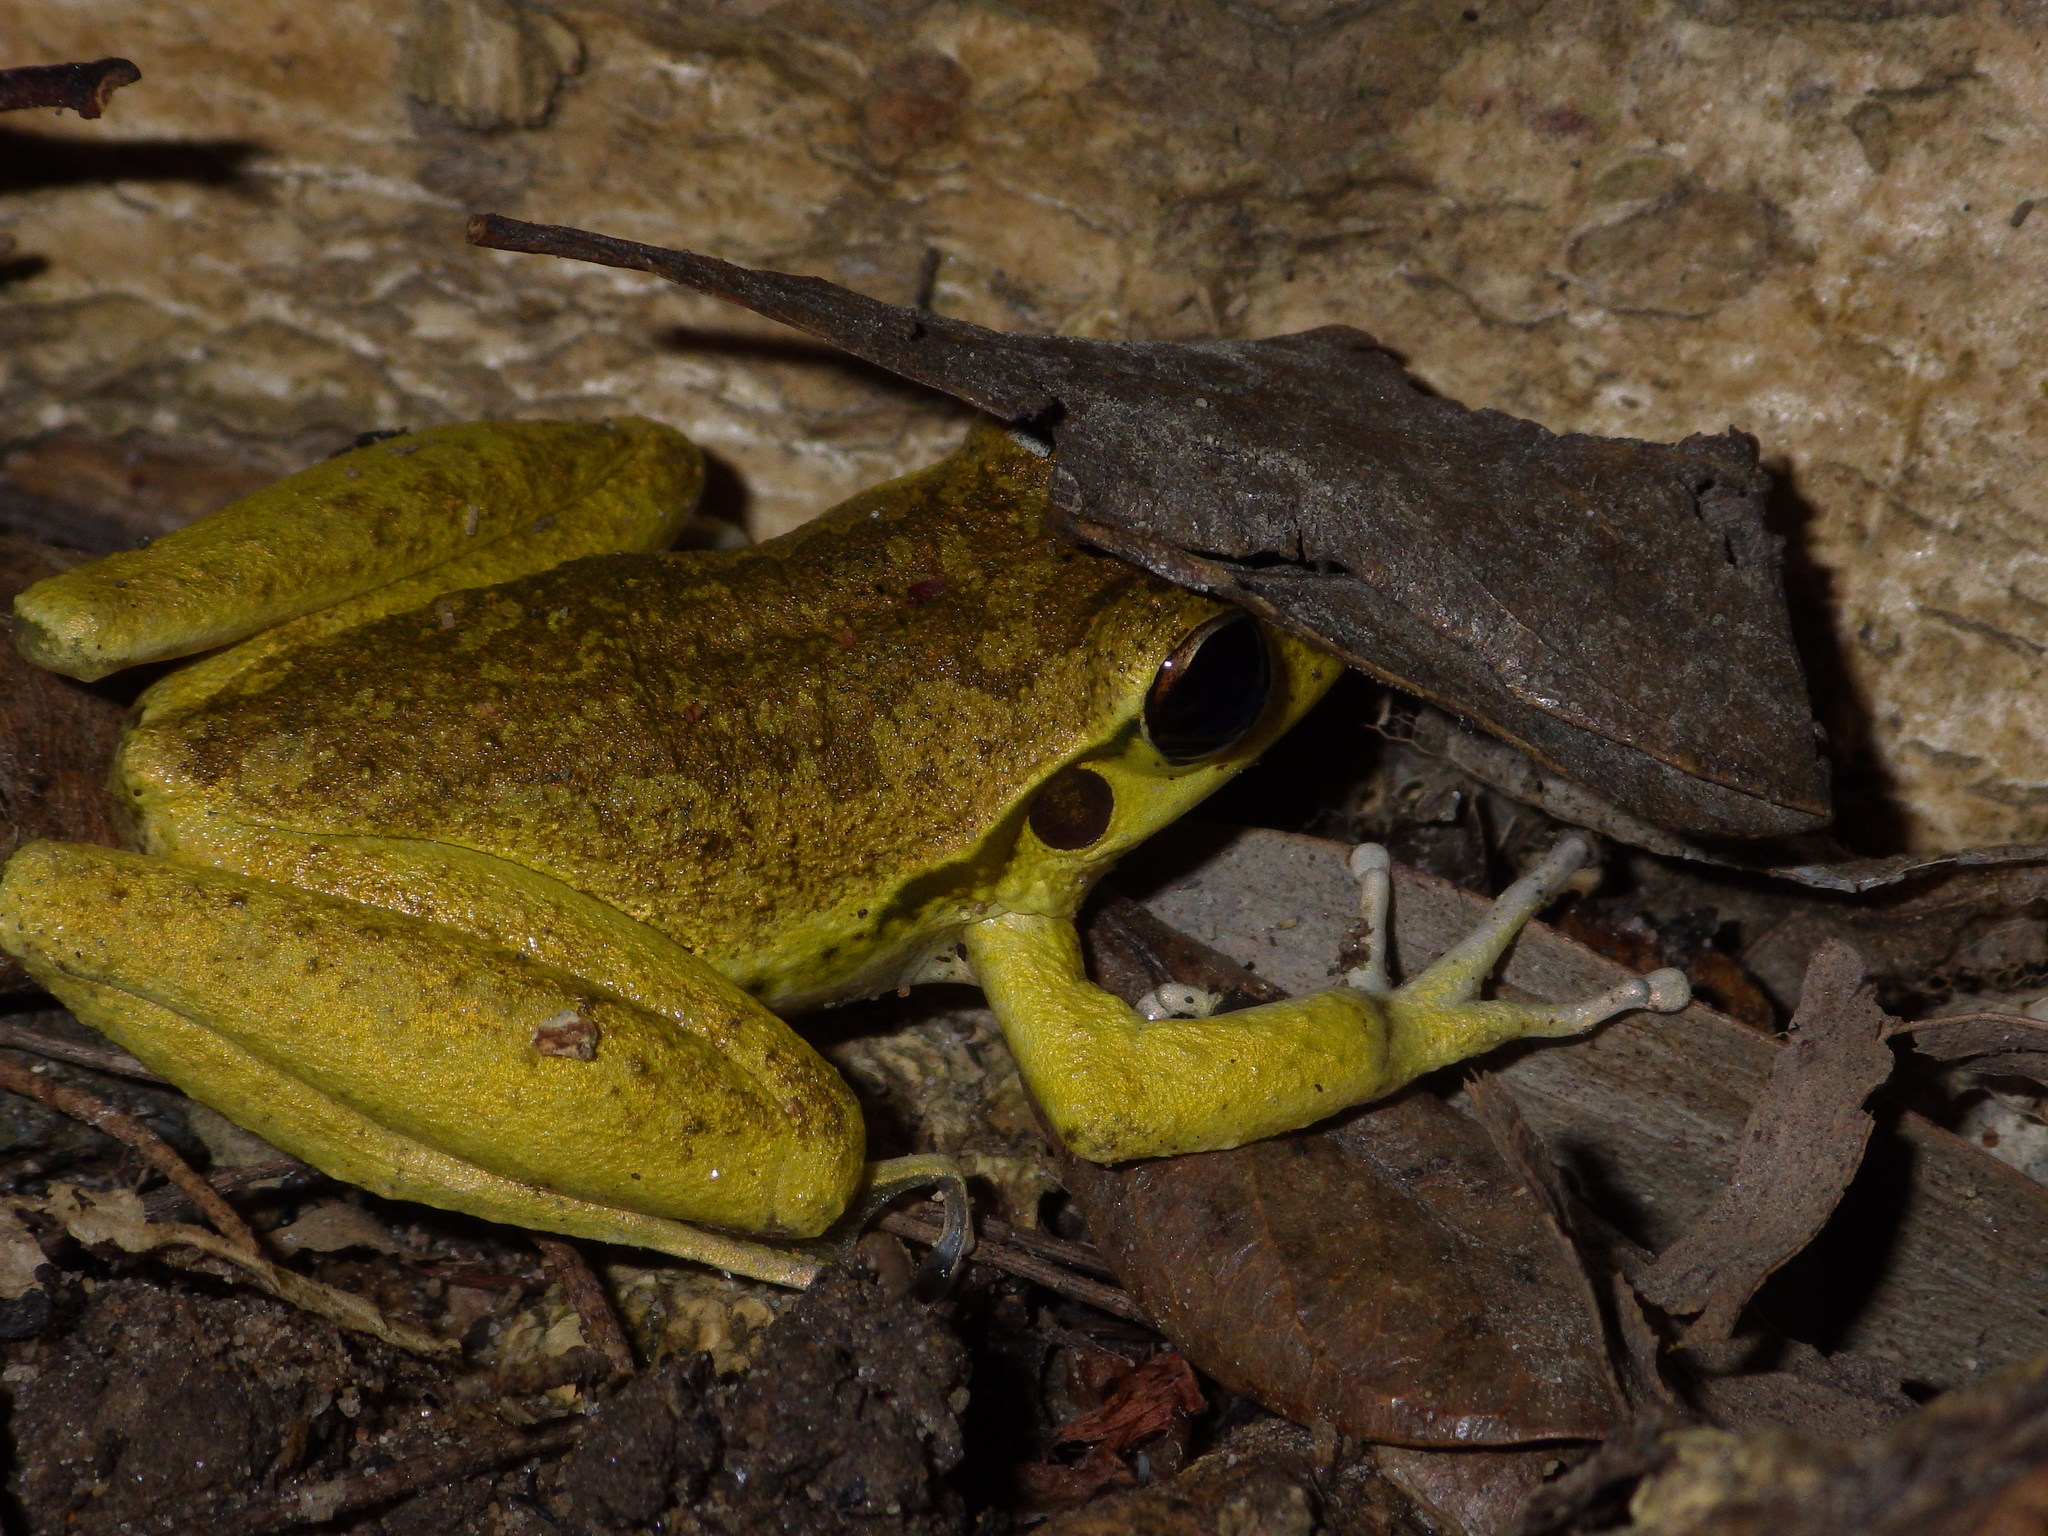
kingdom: Animalia
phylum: Chordata
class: Amphibia
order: Anura
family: Pelodryadidae
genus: Ranoidea
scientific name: Ranoidea jungguy
